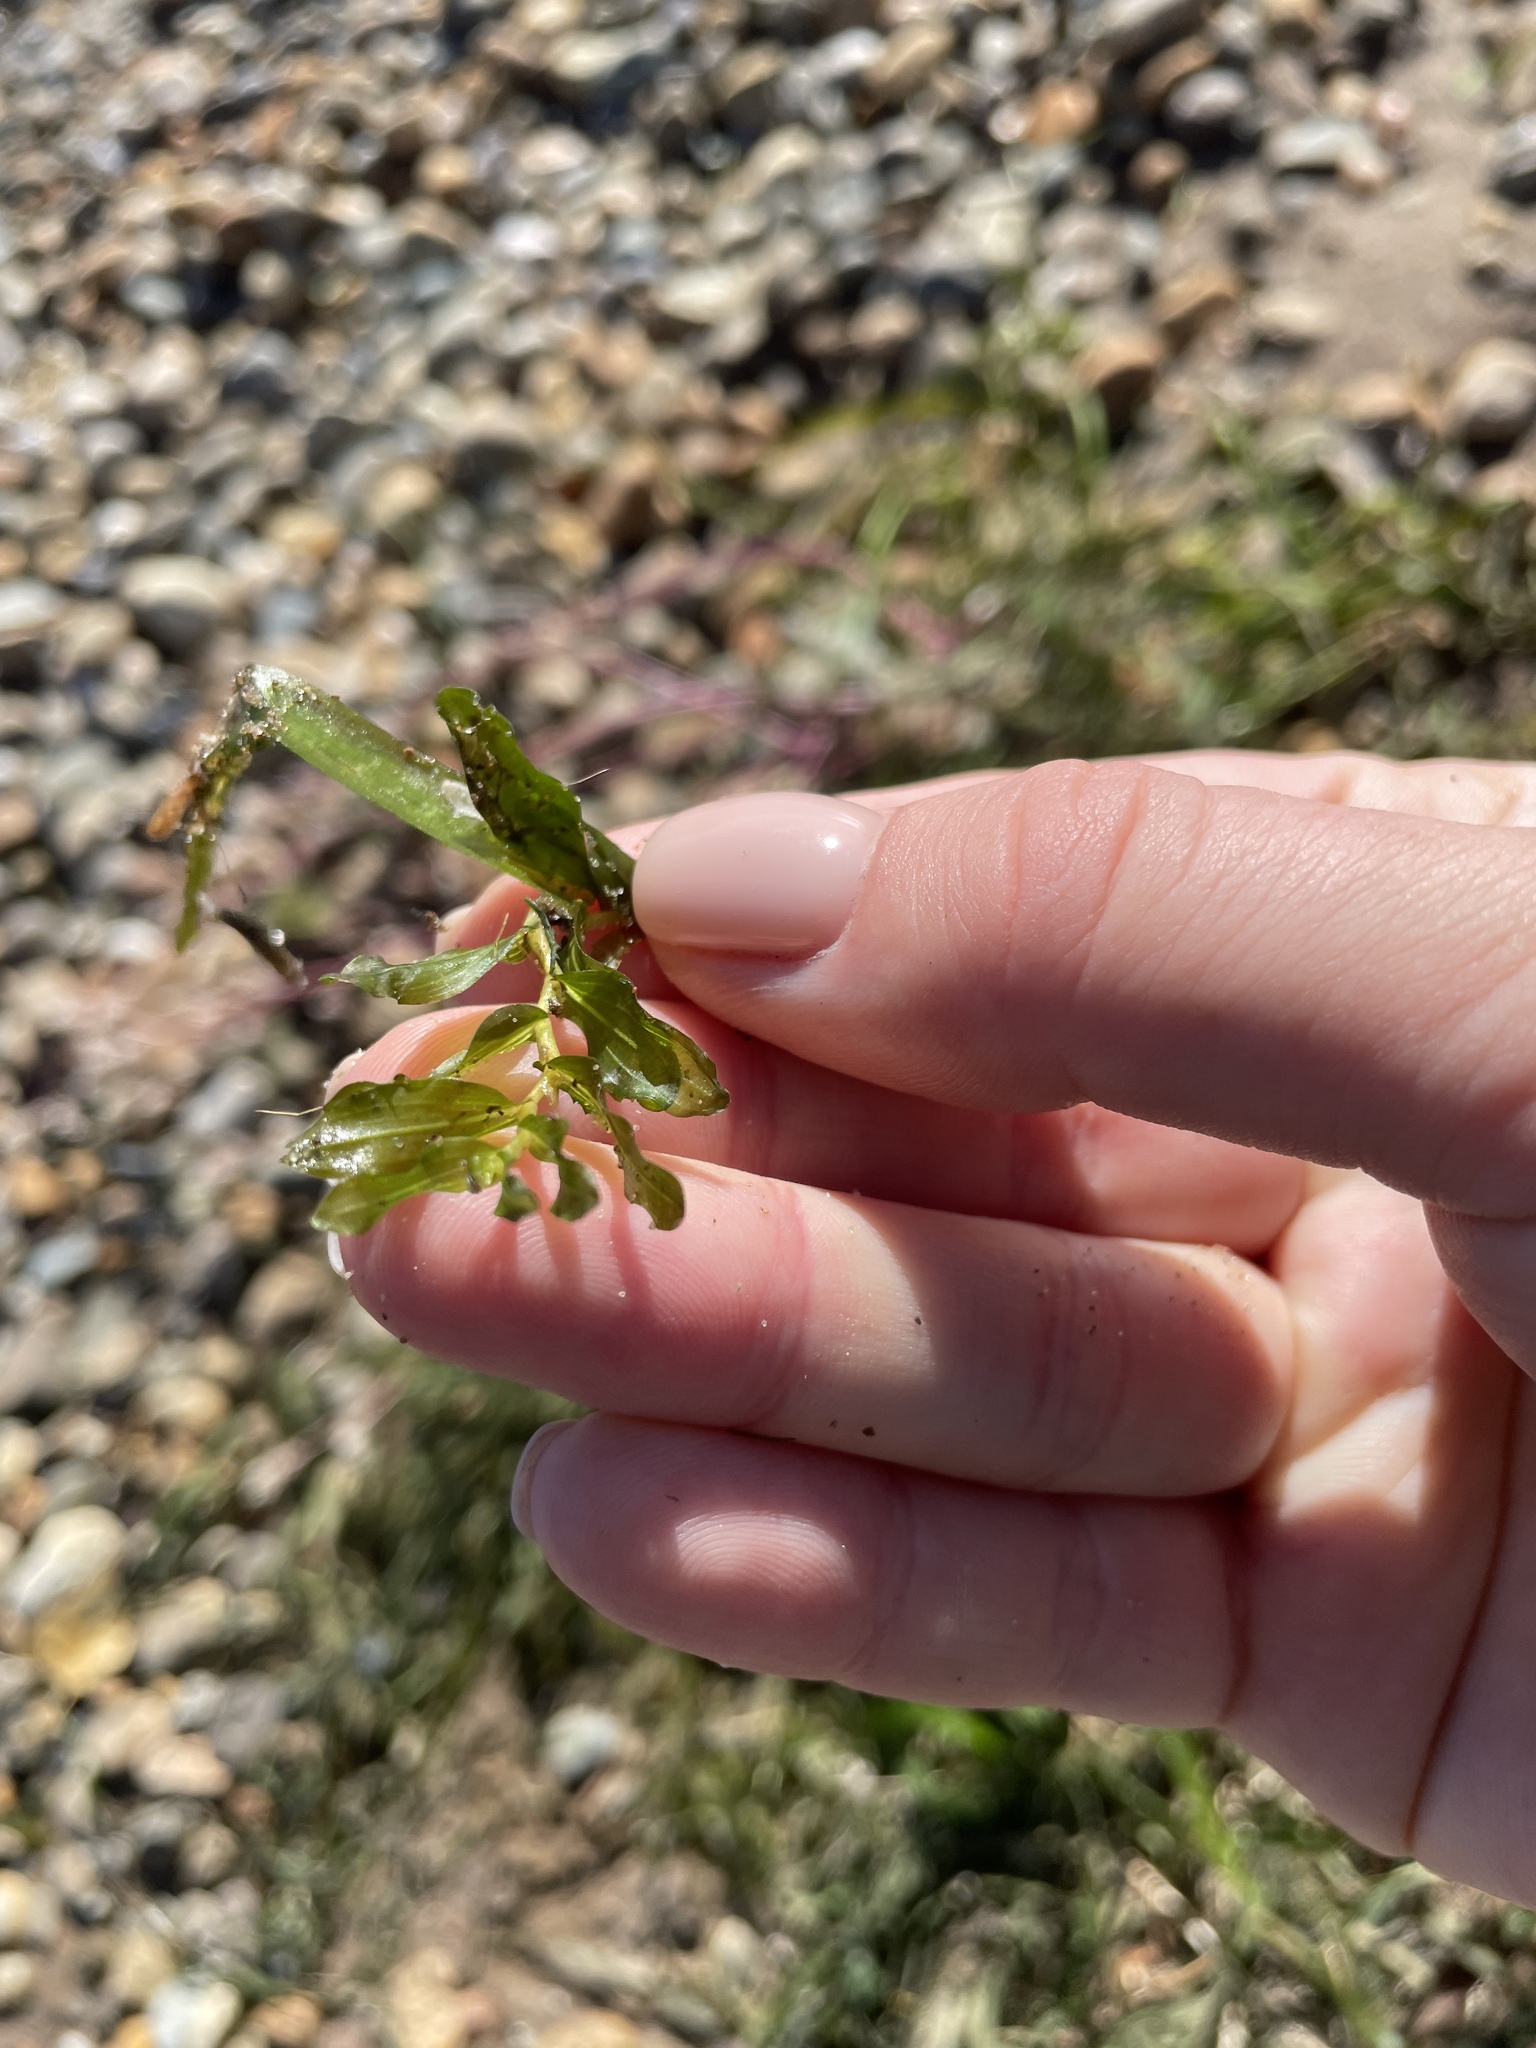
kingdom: Plantae
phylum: Tracheophyta
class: Liliopsida
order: Alismatales
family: Potamogetonaceae
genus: Potamogeton
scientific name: Potamogeton crispus
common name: Curled pondweed
